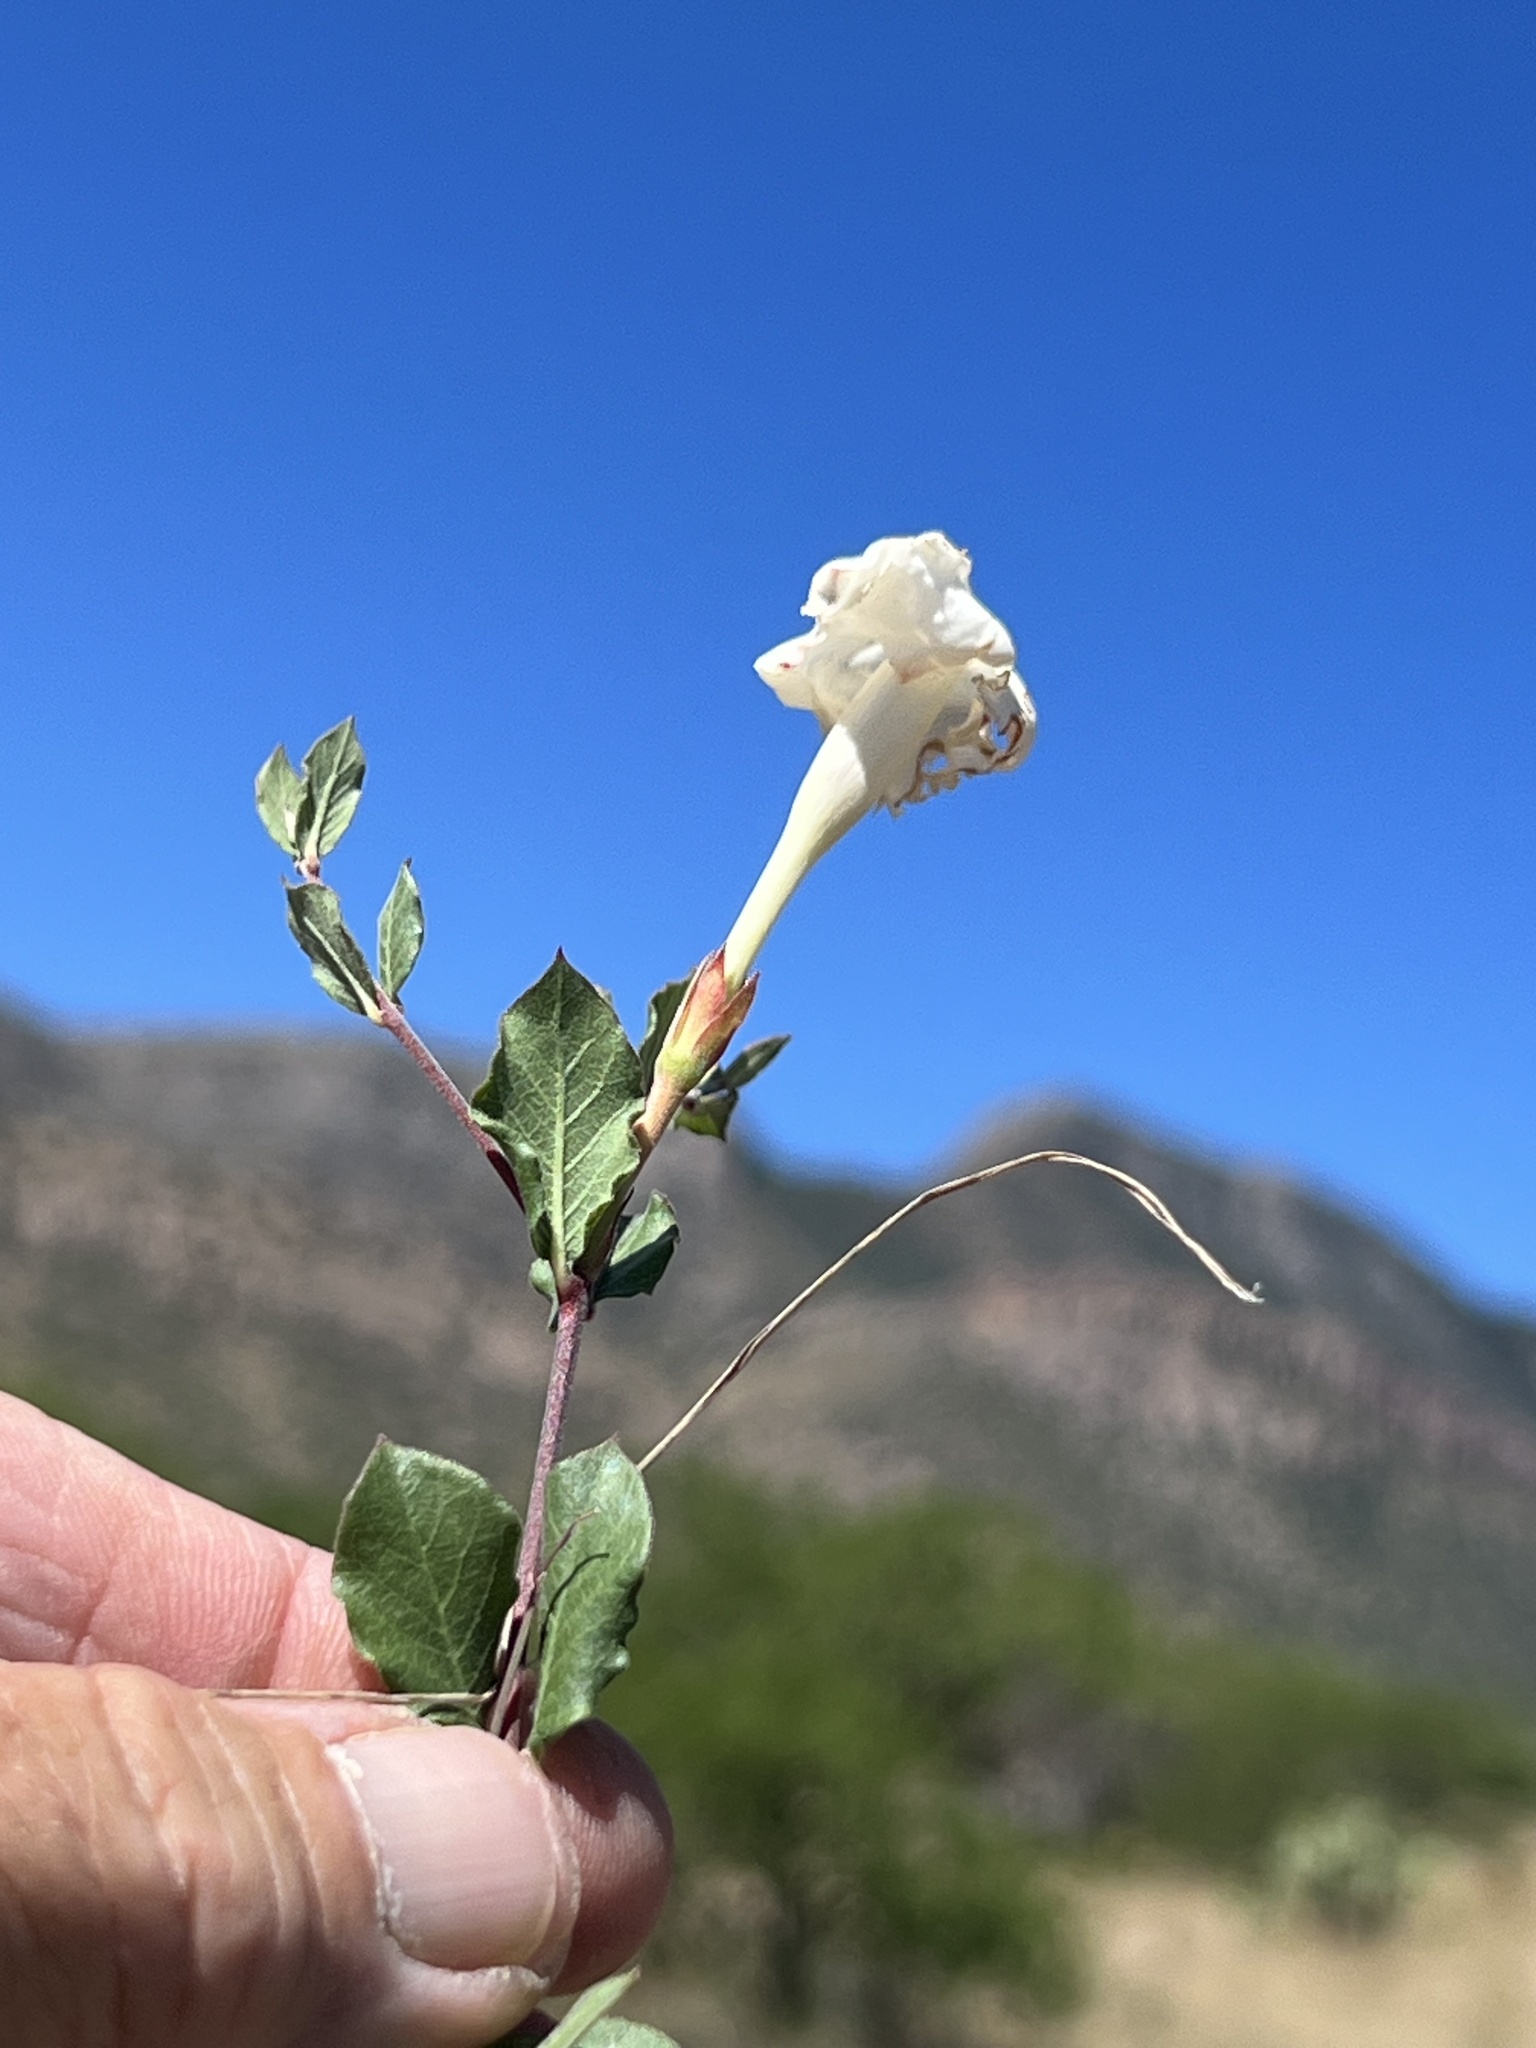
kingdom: Plantae
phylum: Tracheophyta
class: Magnoliopsida
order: Gentianales
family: Apocynaceae
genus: Mandevilla
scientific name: Mandevilla brachysiphon
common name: Huachuca mountain rocktrumpet
